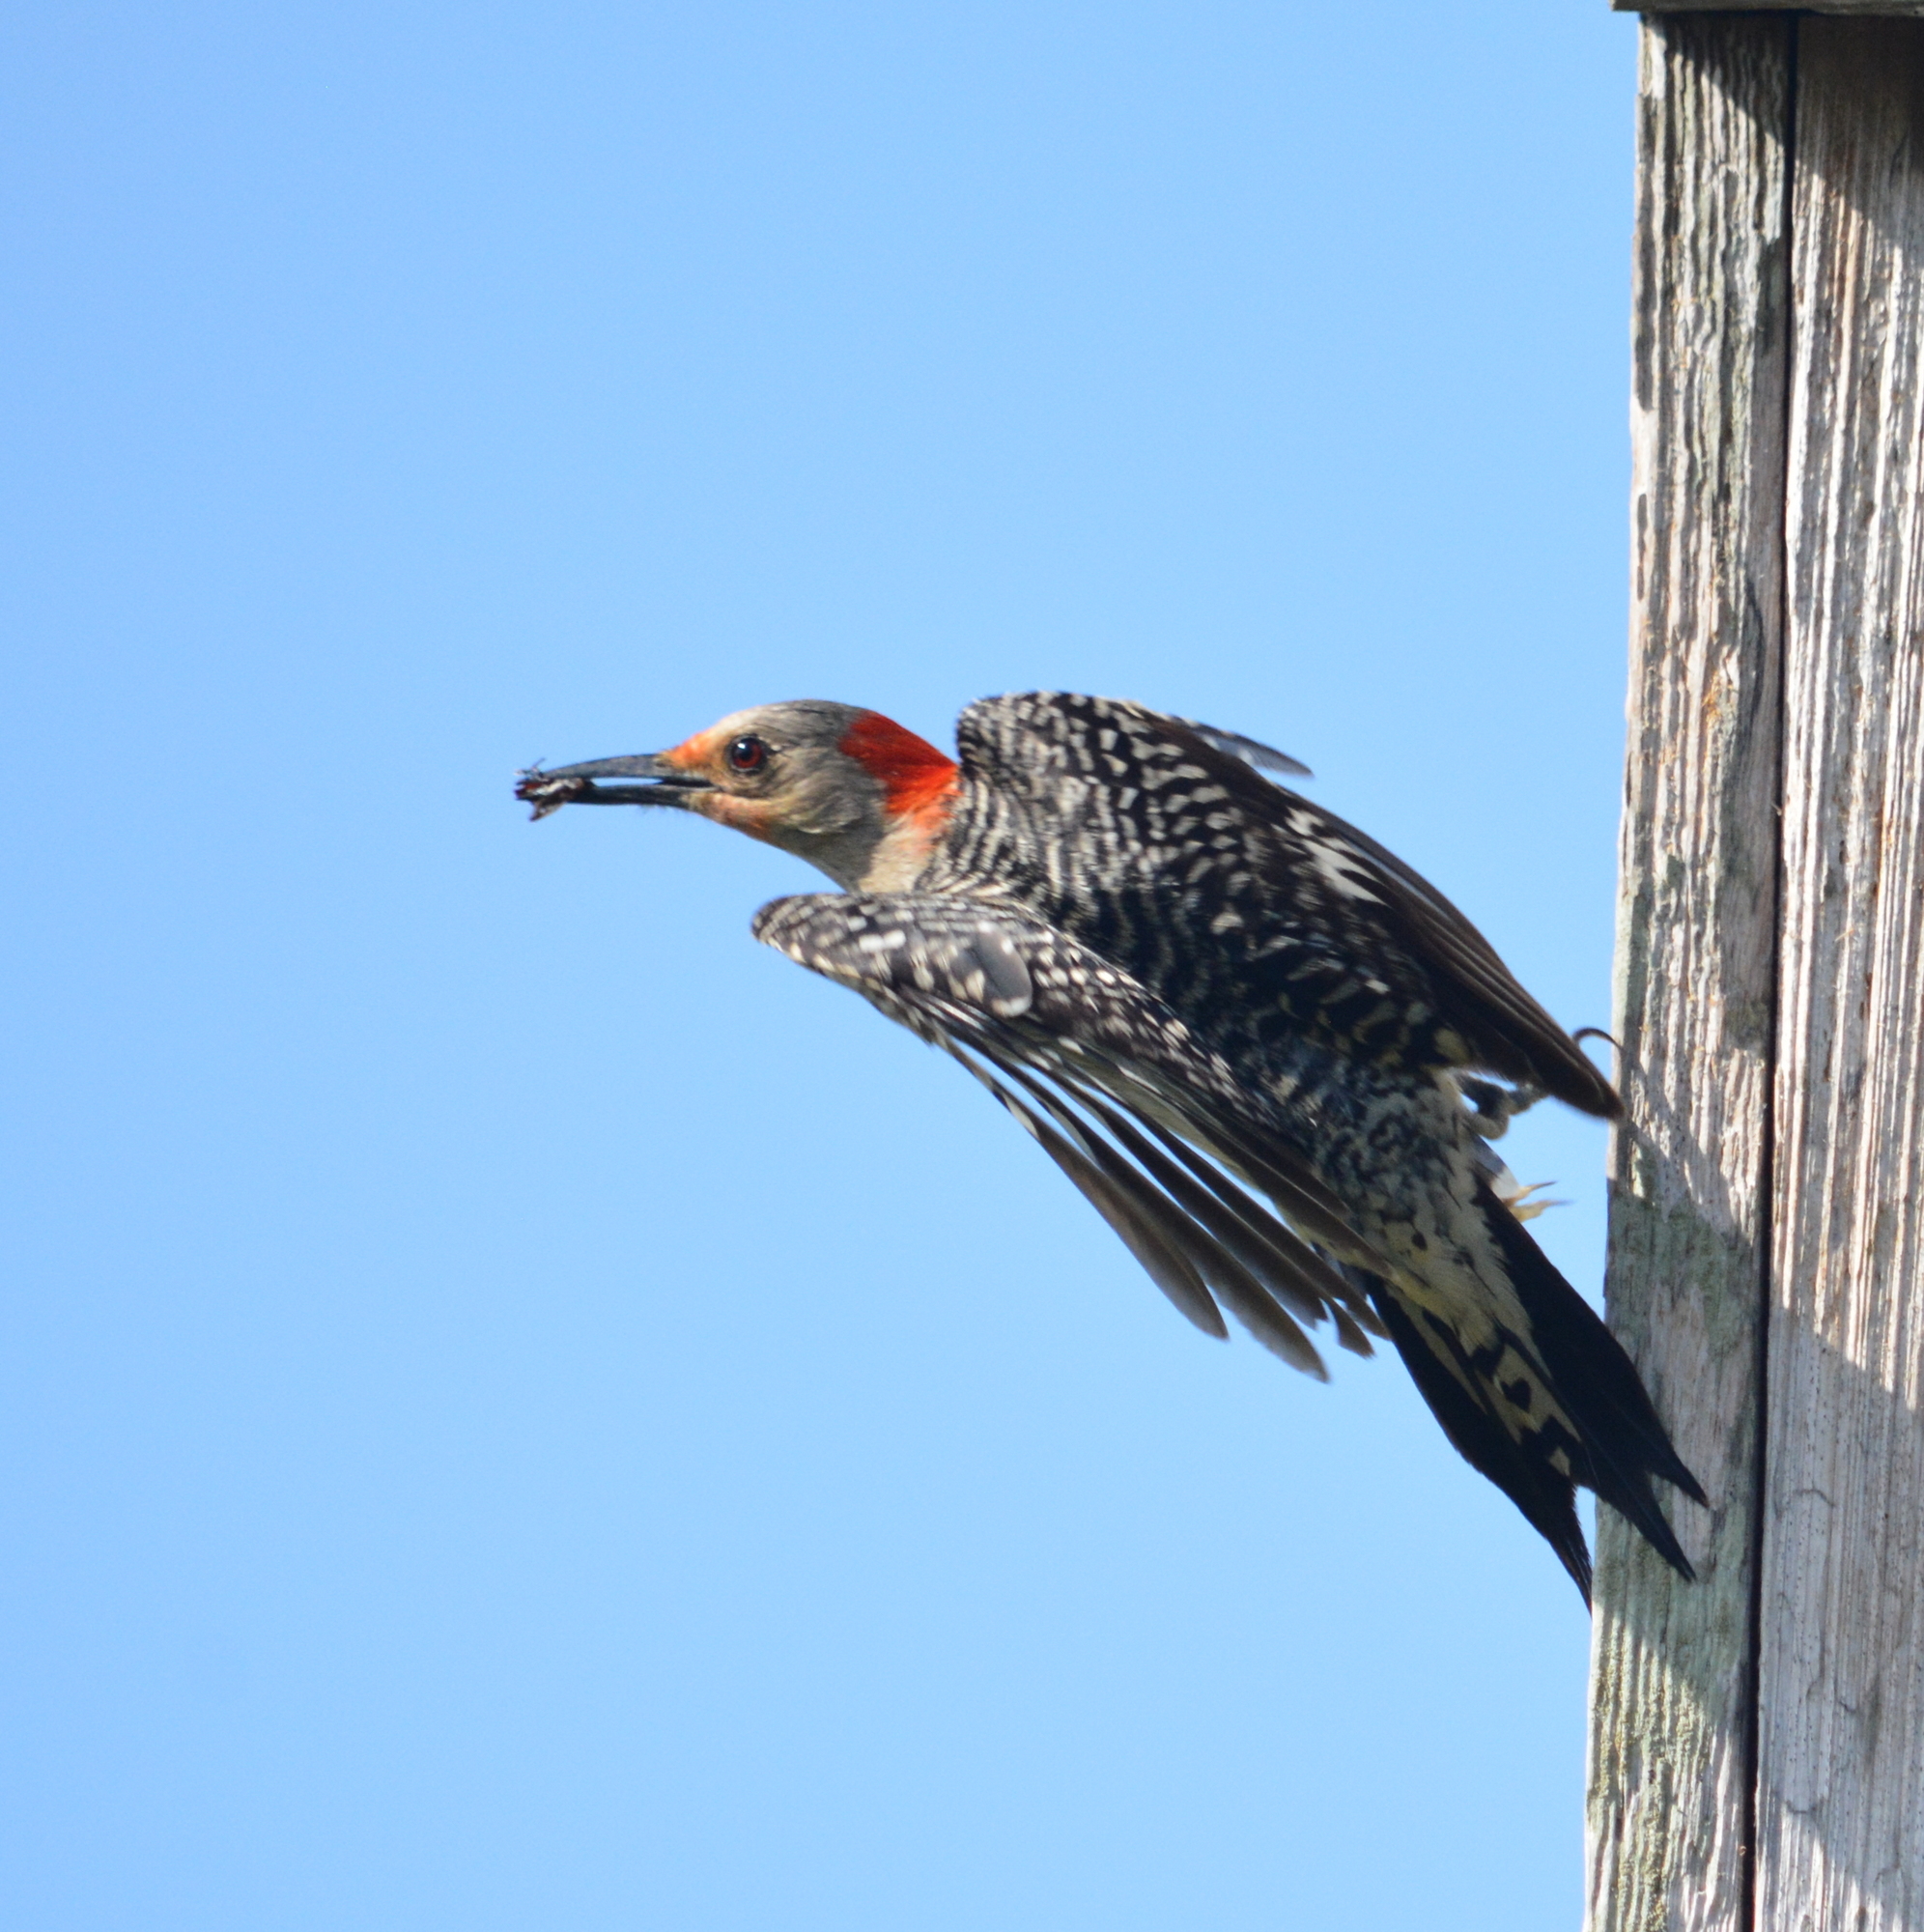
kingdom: Animalia
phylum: Chordata
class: Aves
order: Piciformes
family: Picidae
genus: Melanerpes
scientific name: Melanerpes carolinus
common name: Red-bellied woodpecker
